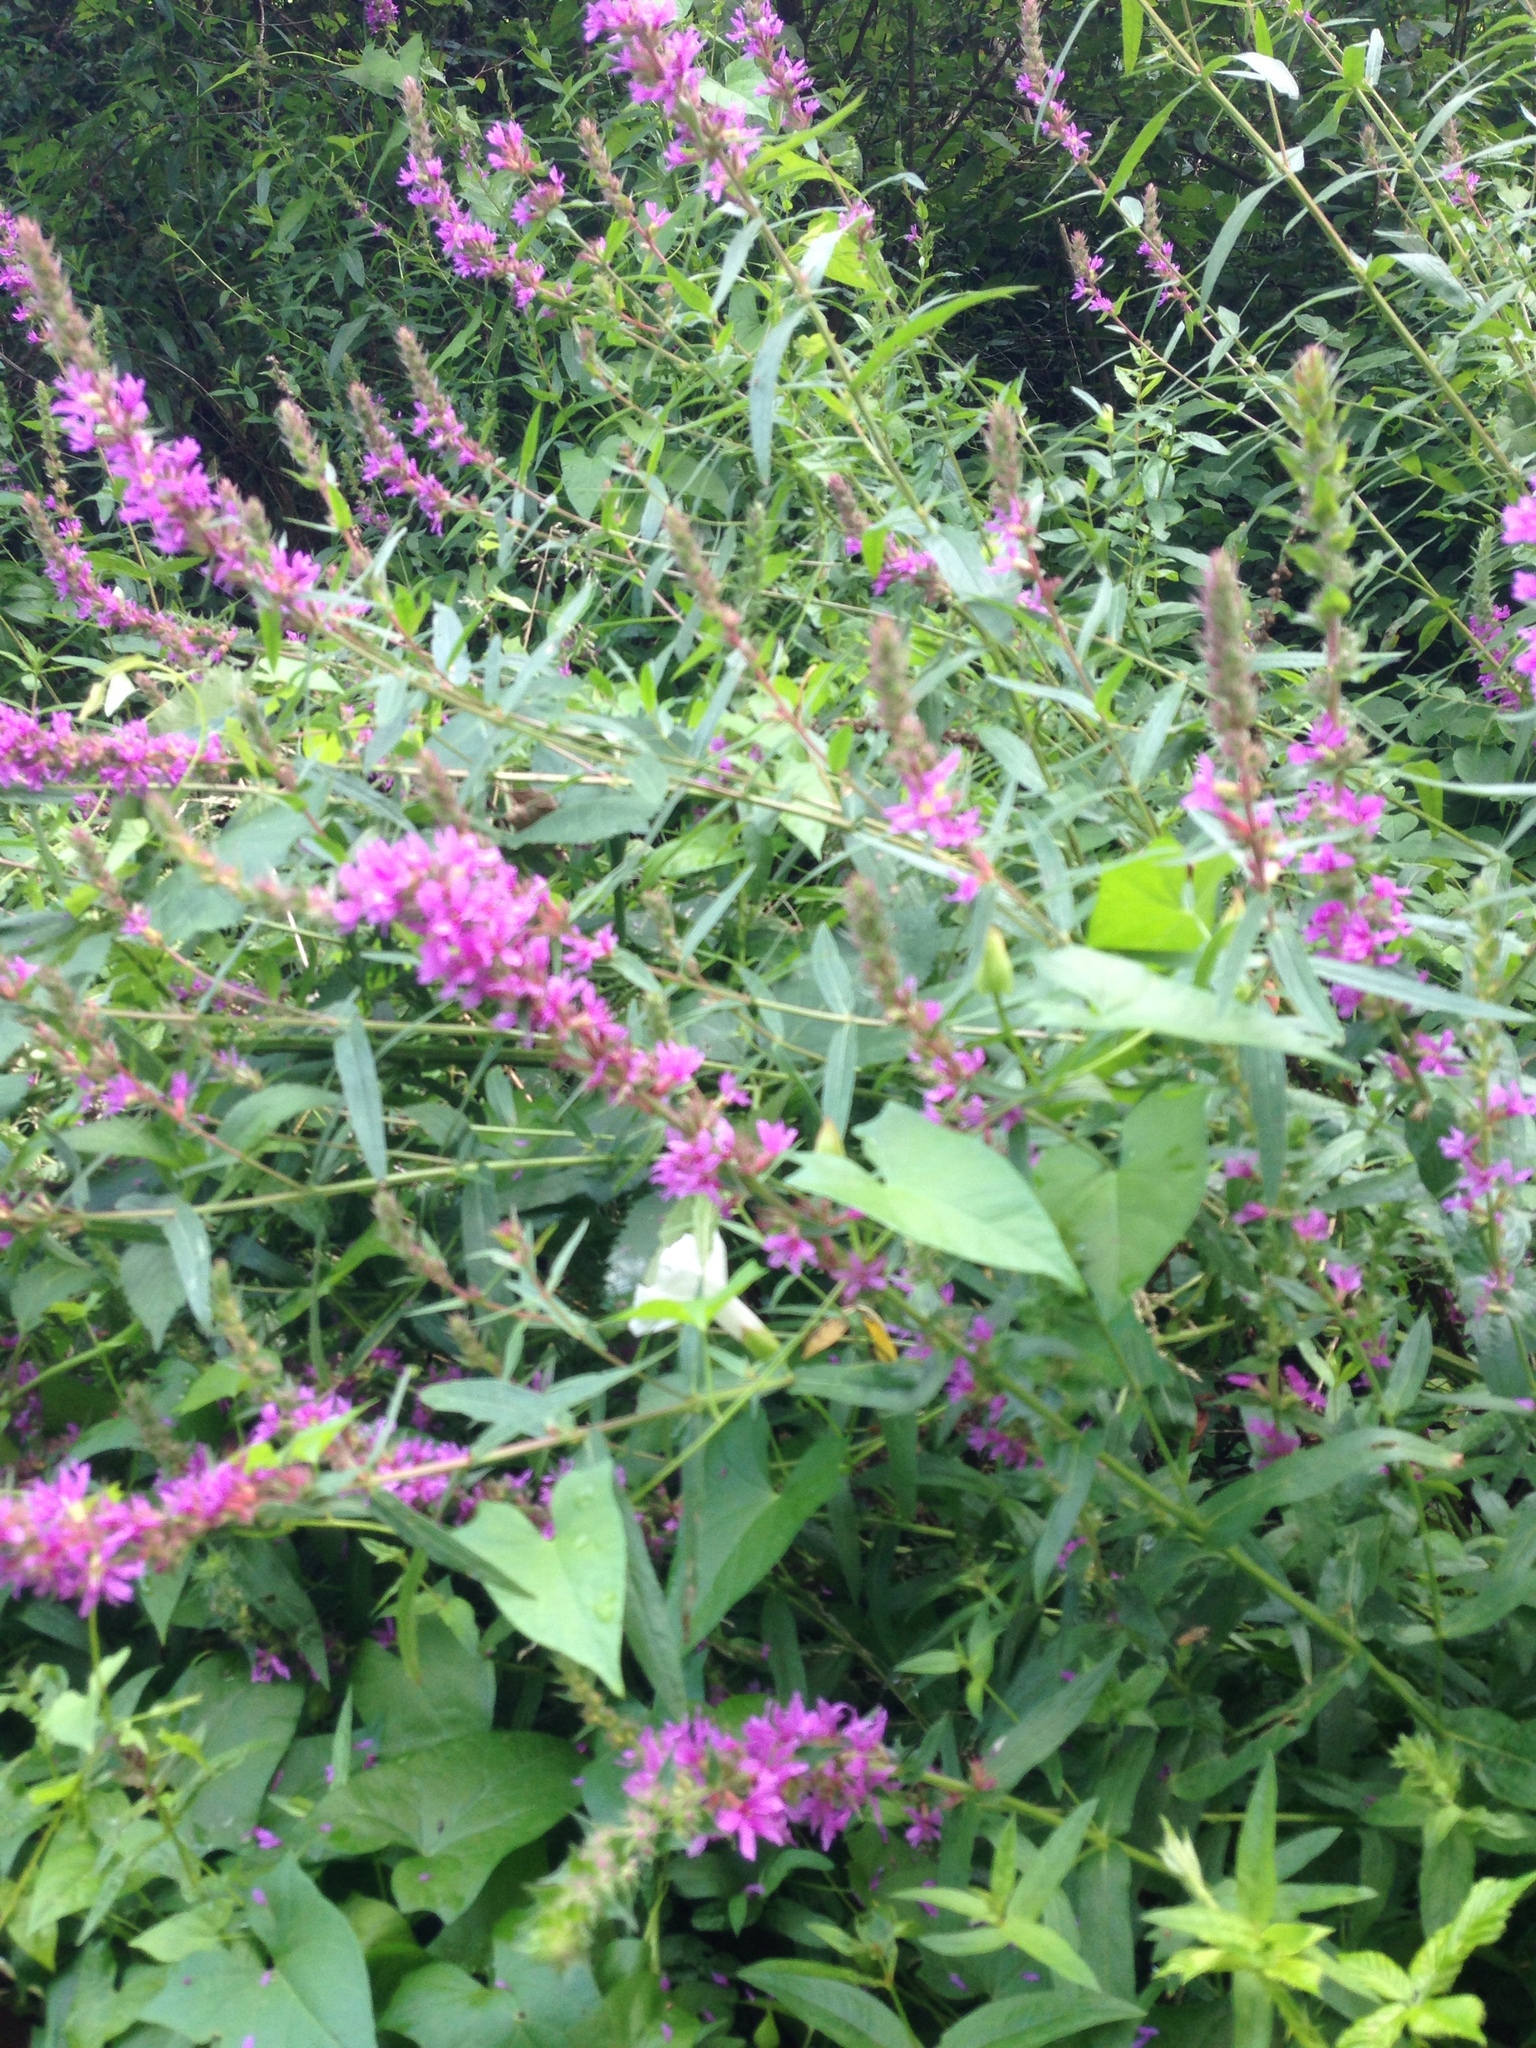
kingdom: Plantae
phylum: Tracheophyta
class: Magnoliopsida
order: Myrtales
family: Lythraceae
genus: Lythrum
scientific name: Lythrum salicaria
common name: Purple loosestrife
